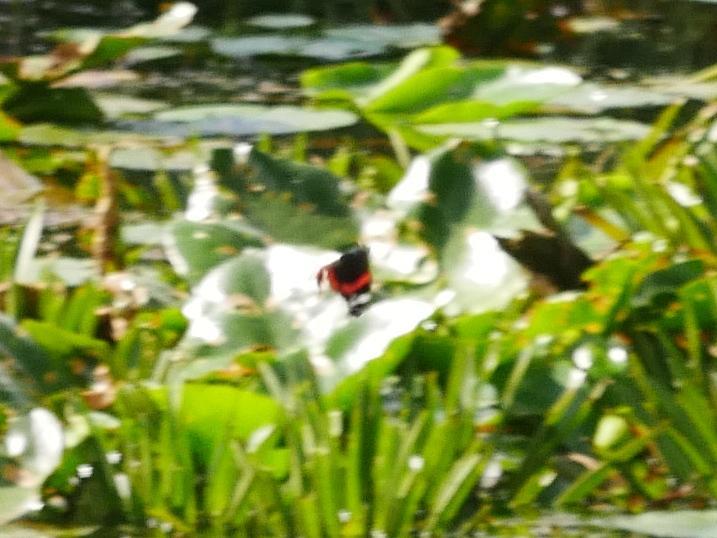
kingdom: Animalia
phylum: Arthropoda
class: Insecta
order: Lepidoptera
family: Nymphalidae
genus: Vanessa
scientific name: Vanessa atalanta
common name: Red admiral
